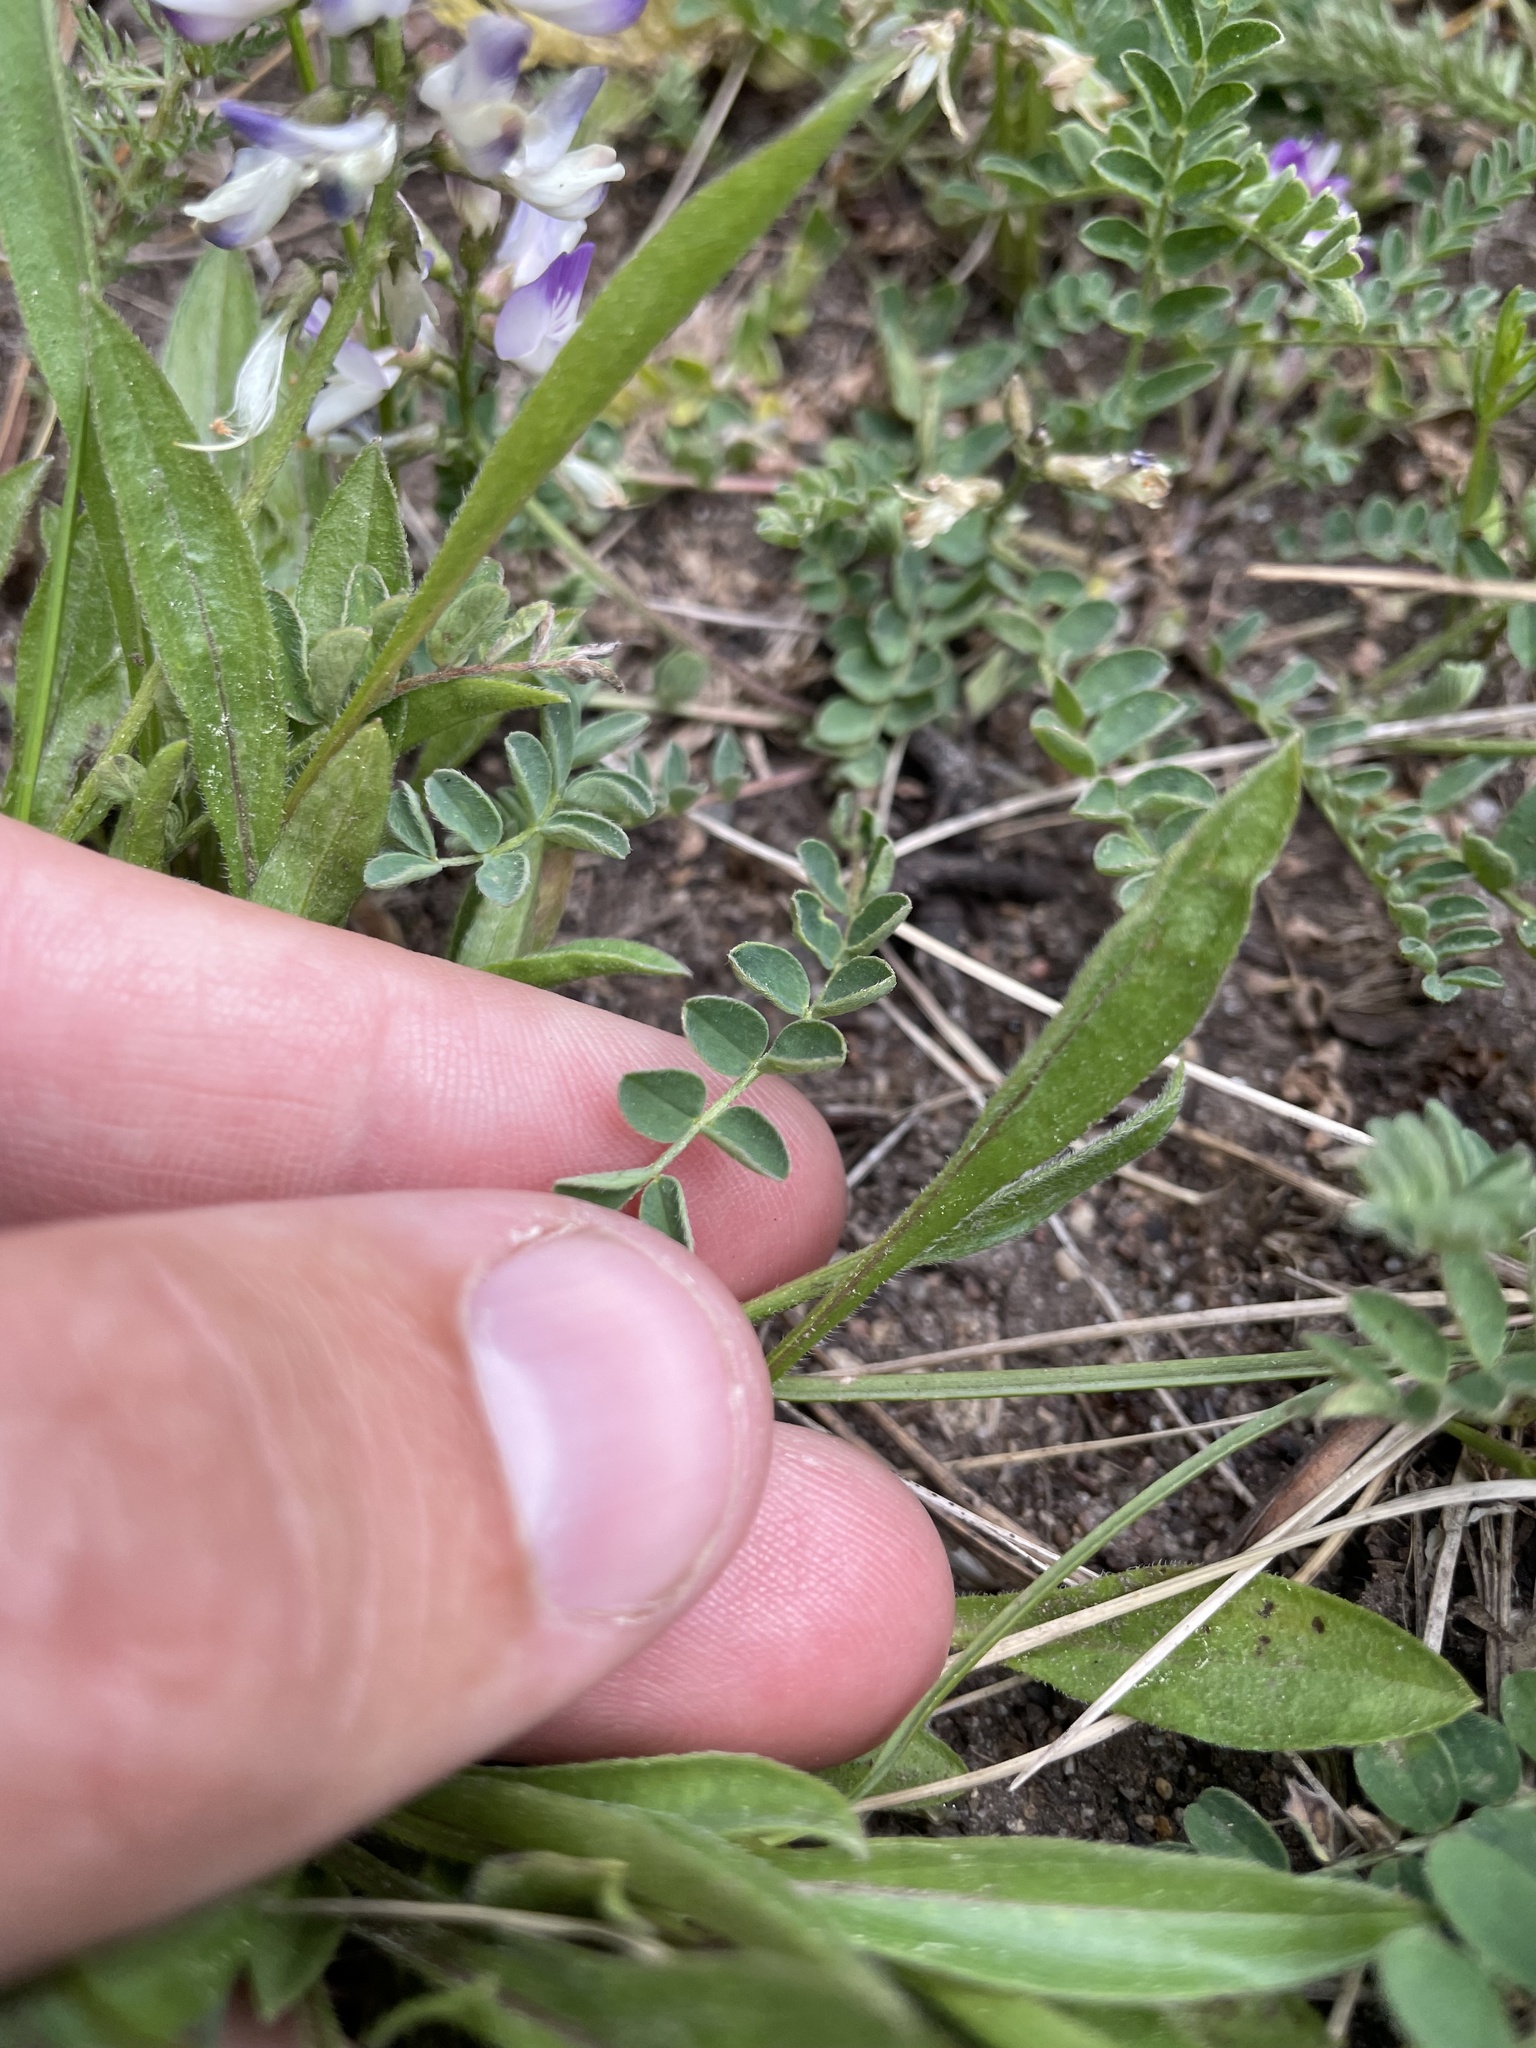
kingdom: Plantae
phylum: Tracheophyta
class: Magnoliopsida
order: Fabales
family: Fabaceae
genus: Astragalus
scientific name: Astragalus alpinus
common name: Alpine milk-vetch
